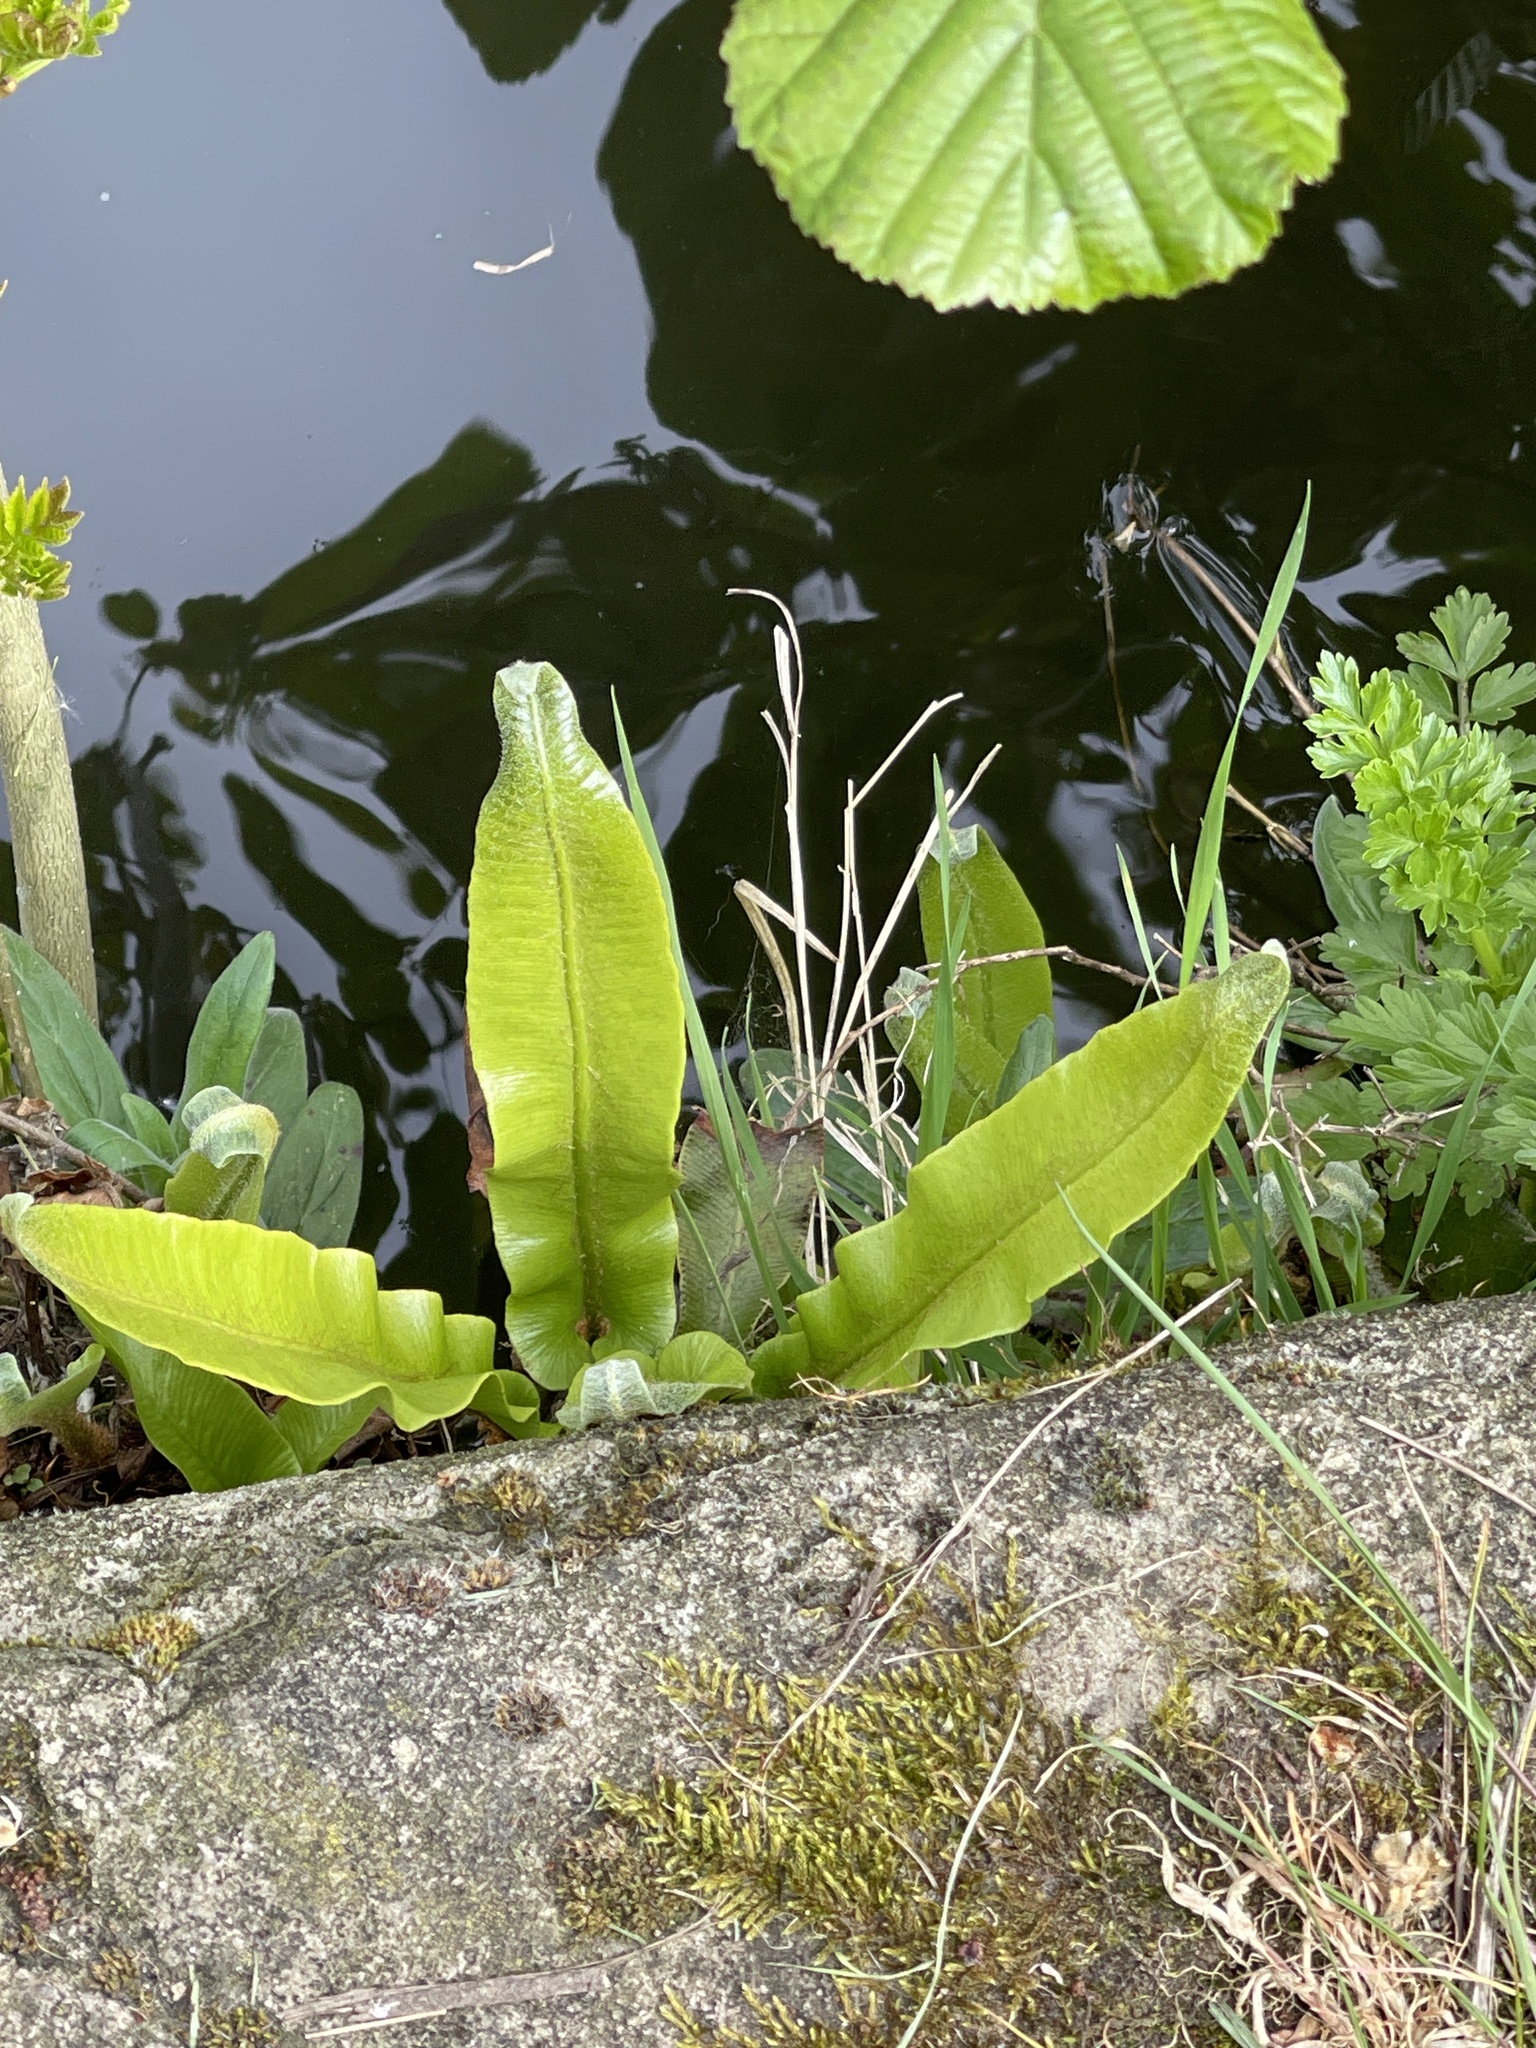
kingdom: Plantae
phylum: Tracheophyta
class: Polypodiopsida
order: Polypodiales
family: Aspleniaceae
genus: Asplenium
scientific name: Asplenium scolopendrium
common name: Hart's-tongue fern
